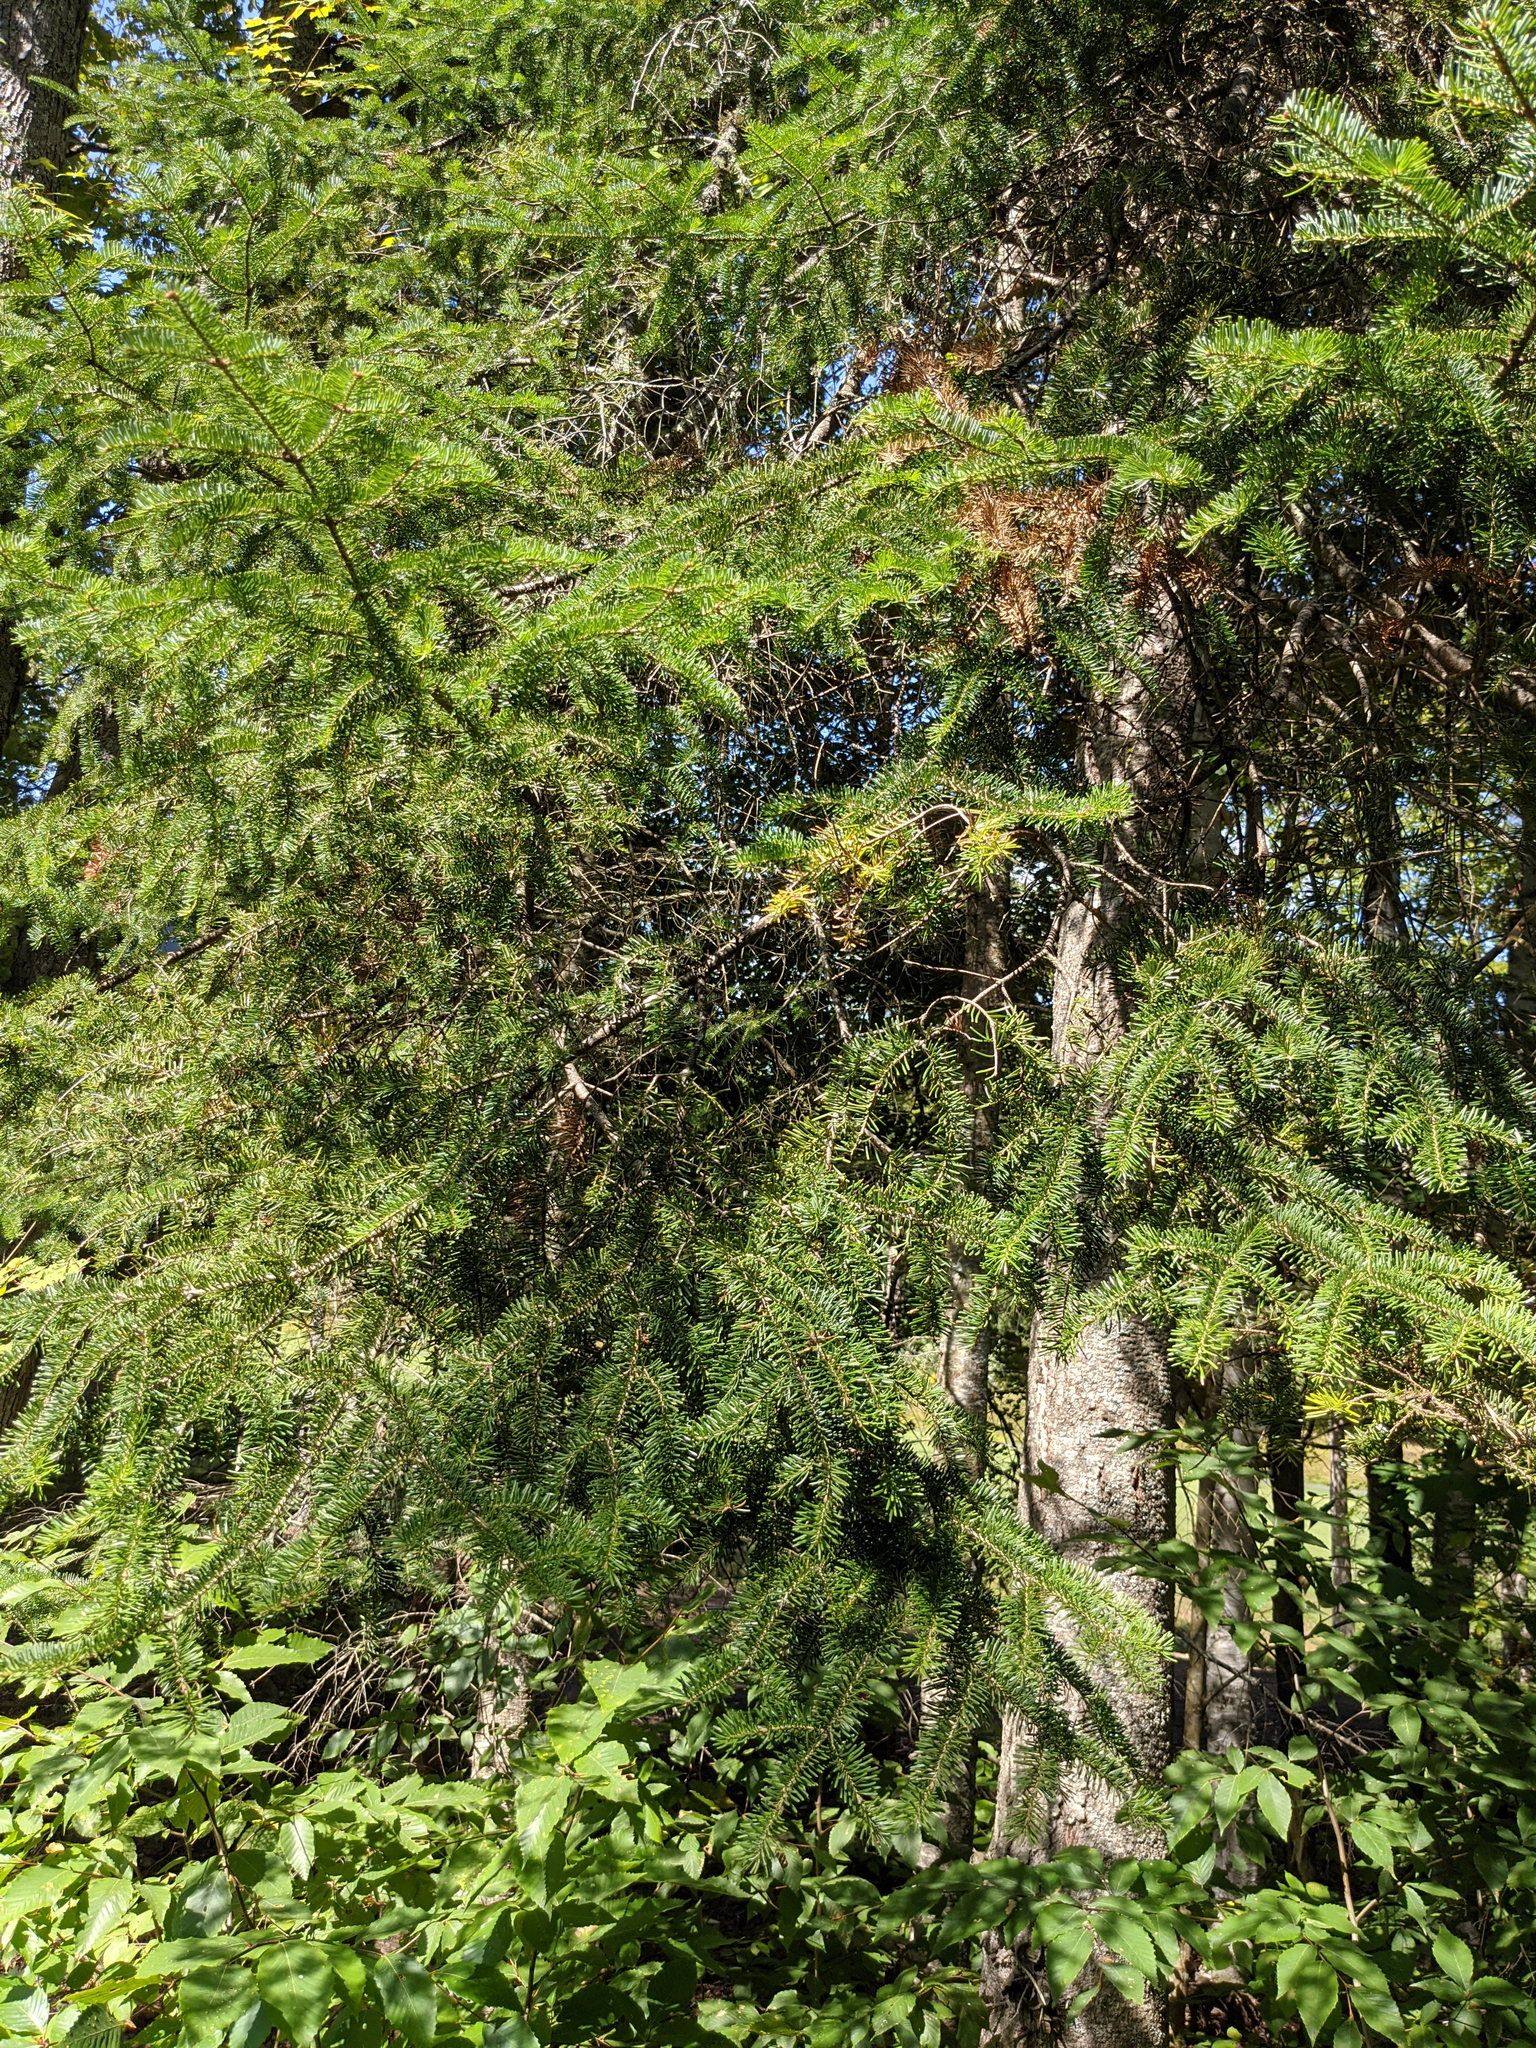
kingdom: Plantae
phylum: Tracheophyta
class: Pinopsida
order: Pinales
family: Pinaceae
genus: Abies
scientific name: Abies balsamea
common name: Balsam fir
